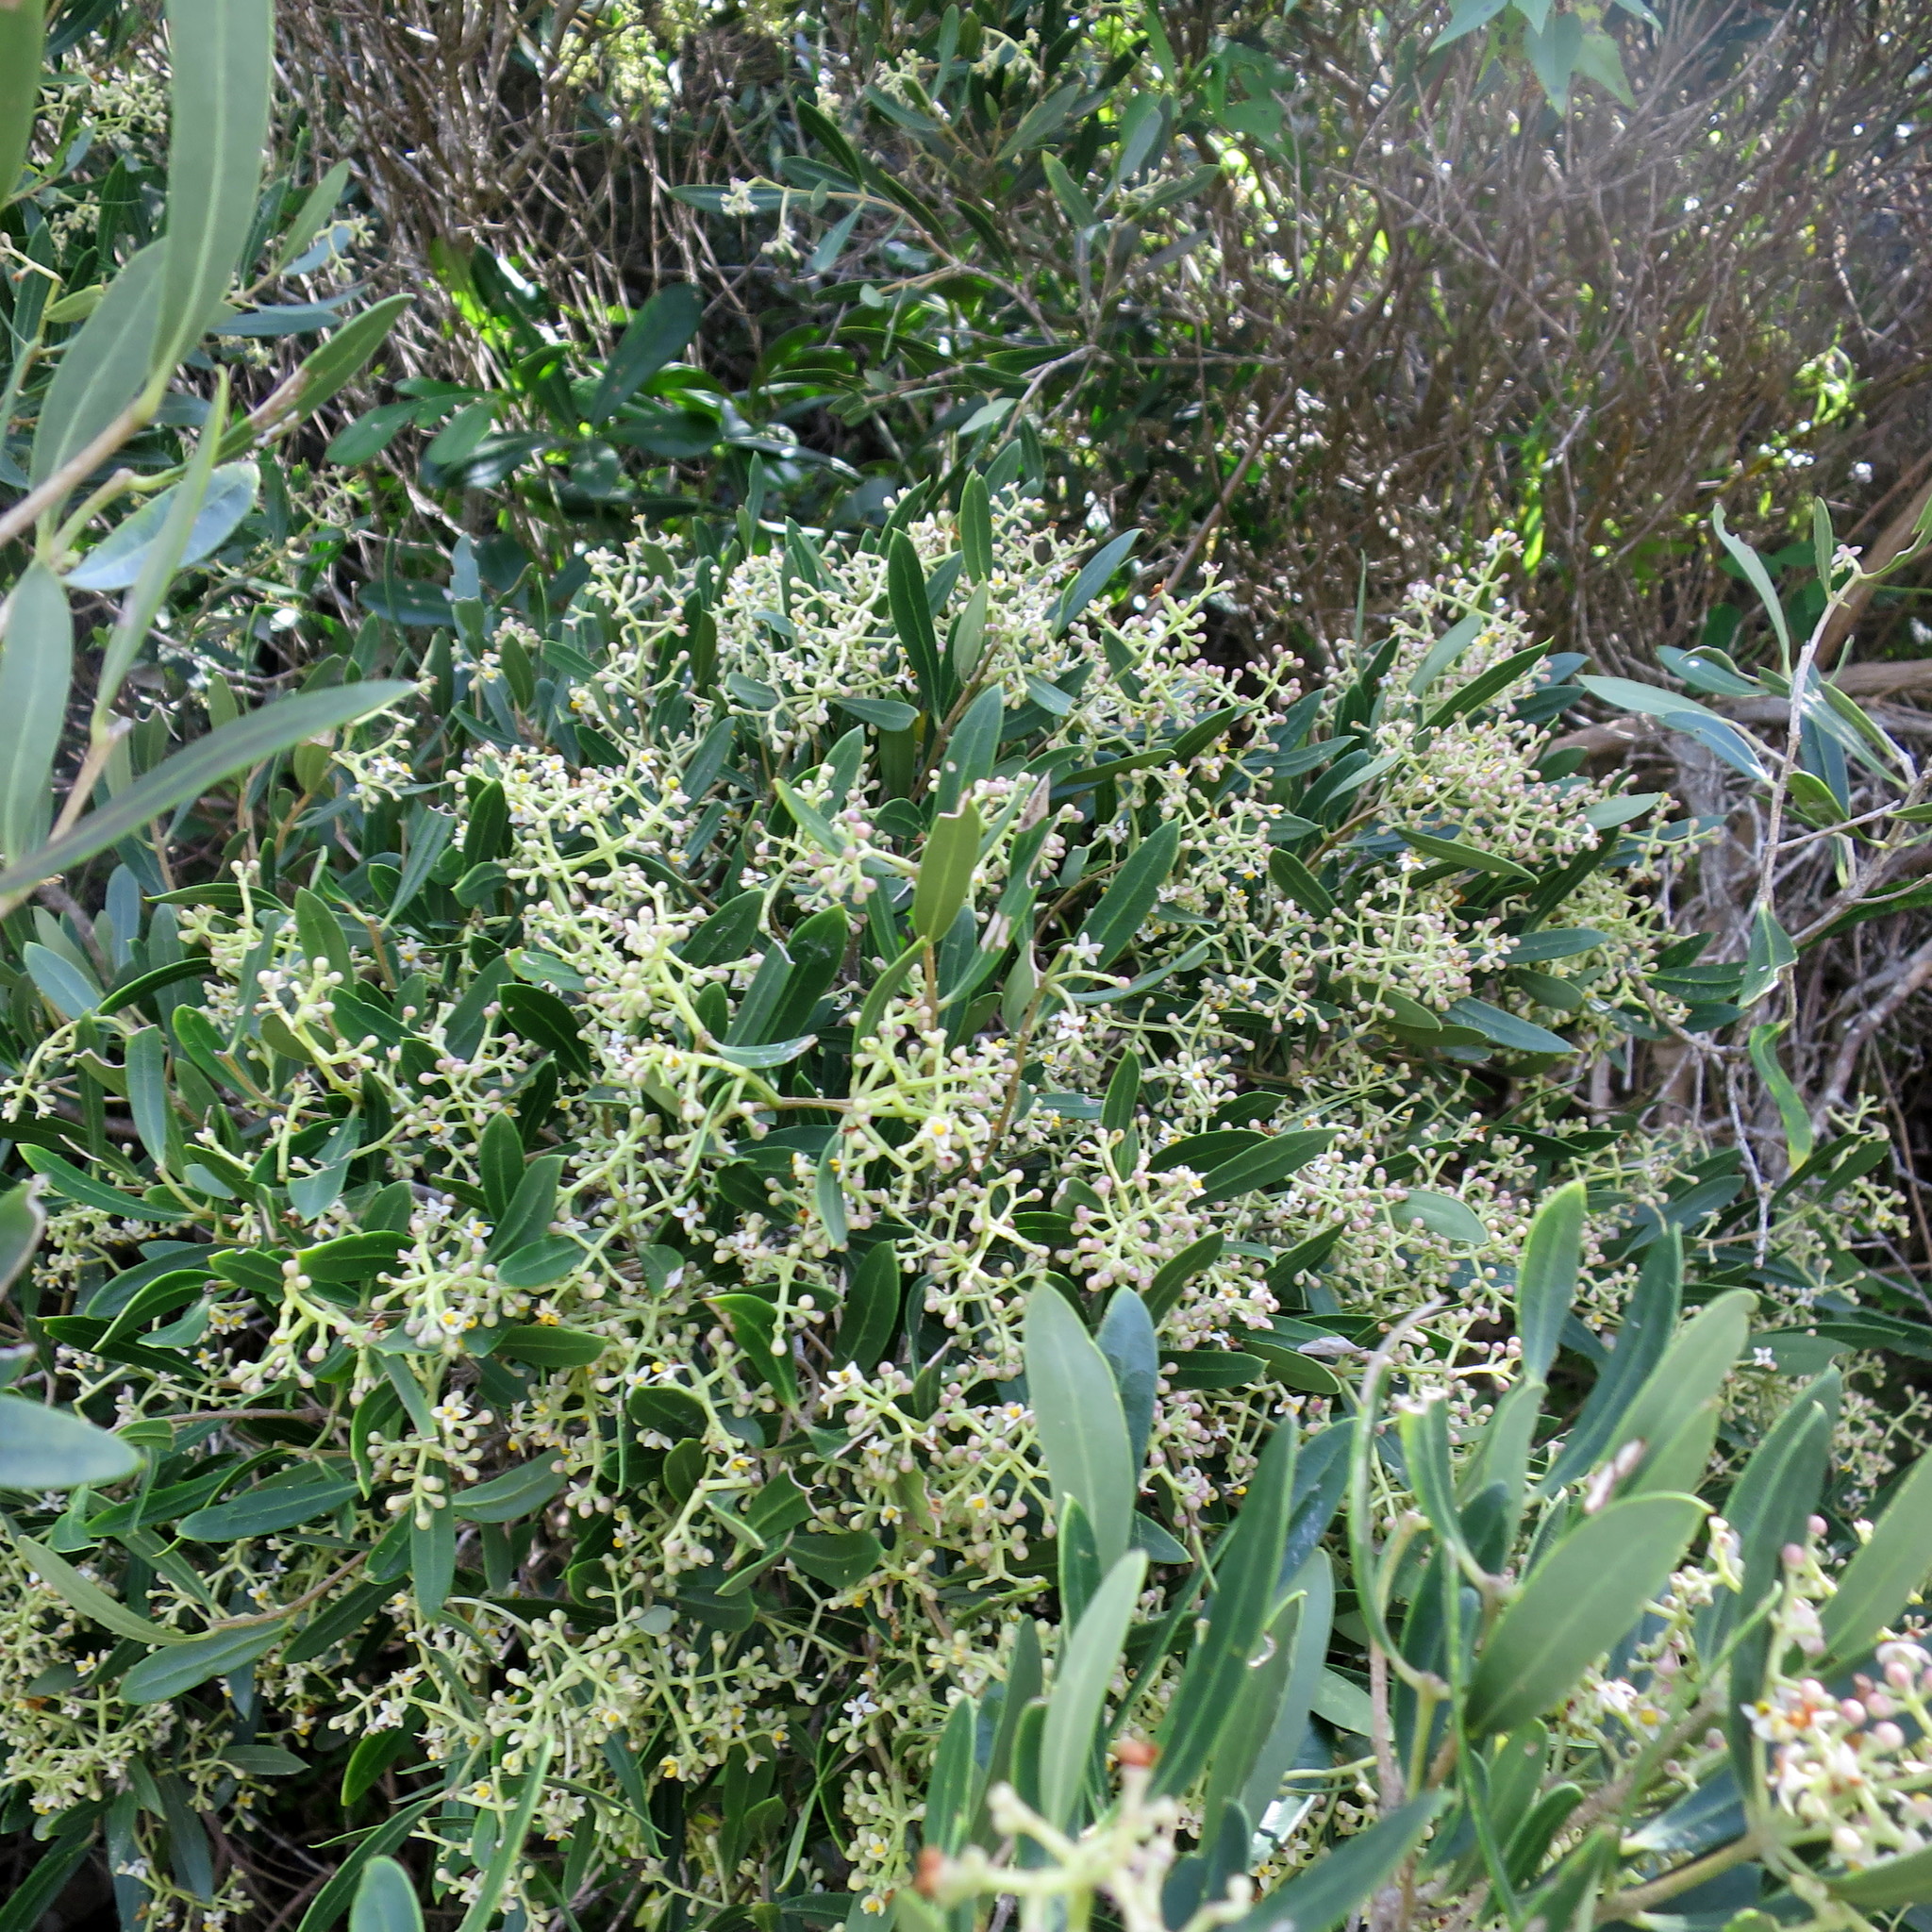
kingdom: Plantae
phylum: Tracheophyta
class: Magnoliopsida
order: Lamiales
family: Oleaceae
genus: Olea
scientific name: Olea exasperata
